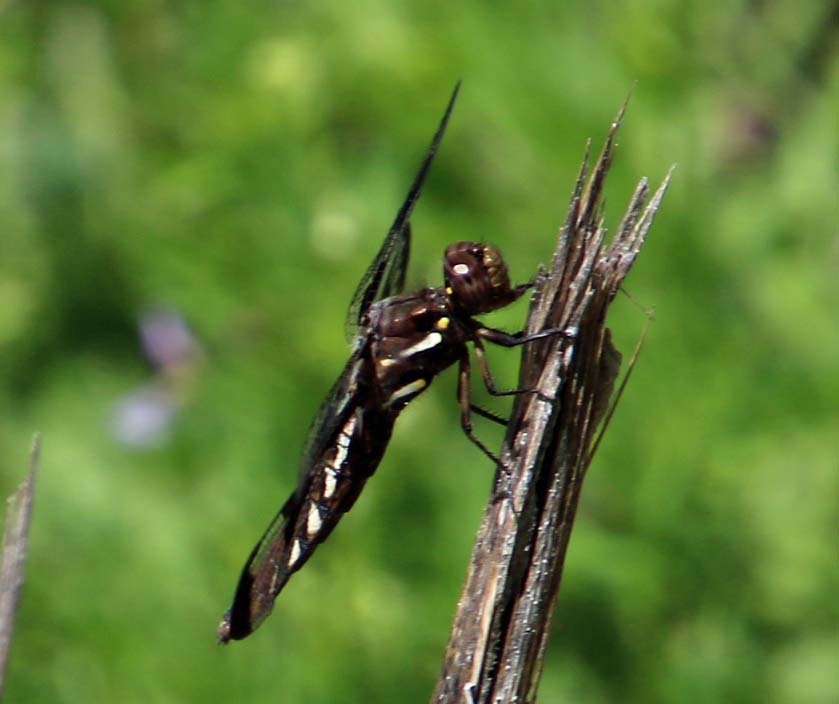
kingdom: Animalia
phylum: Arthropoda
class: Insecta
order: Odonata
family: Libellulidae
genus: Plathemis
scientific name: Plathemis lydia
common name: Common whitetail
